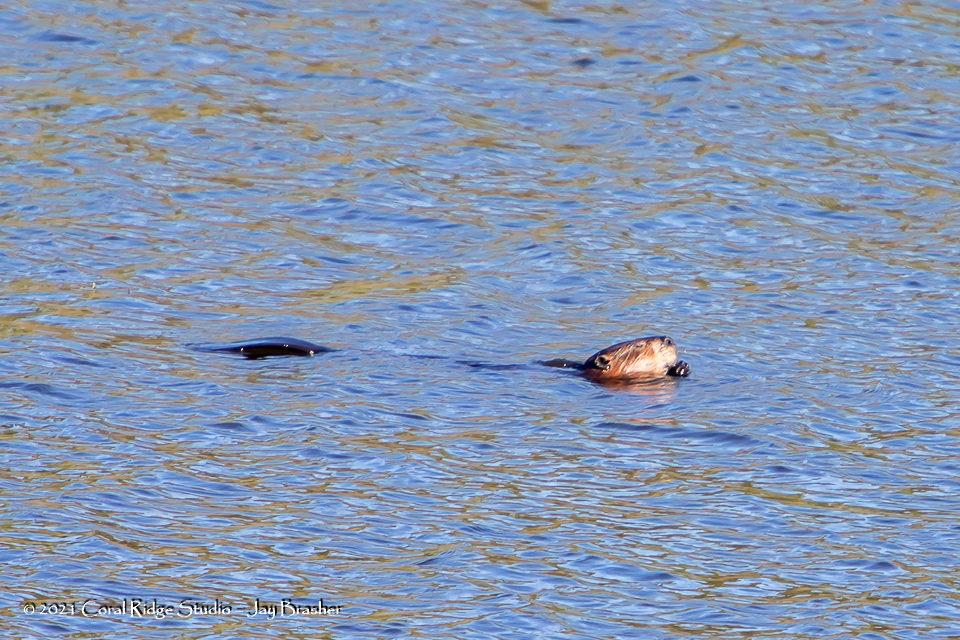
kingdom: Animalia
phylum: Chordata
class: Mammalia
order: Rodentia
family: Castoridae
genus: Castor
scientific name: Castor canadensis
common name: American beaver
